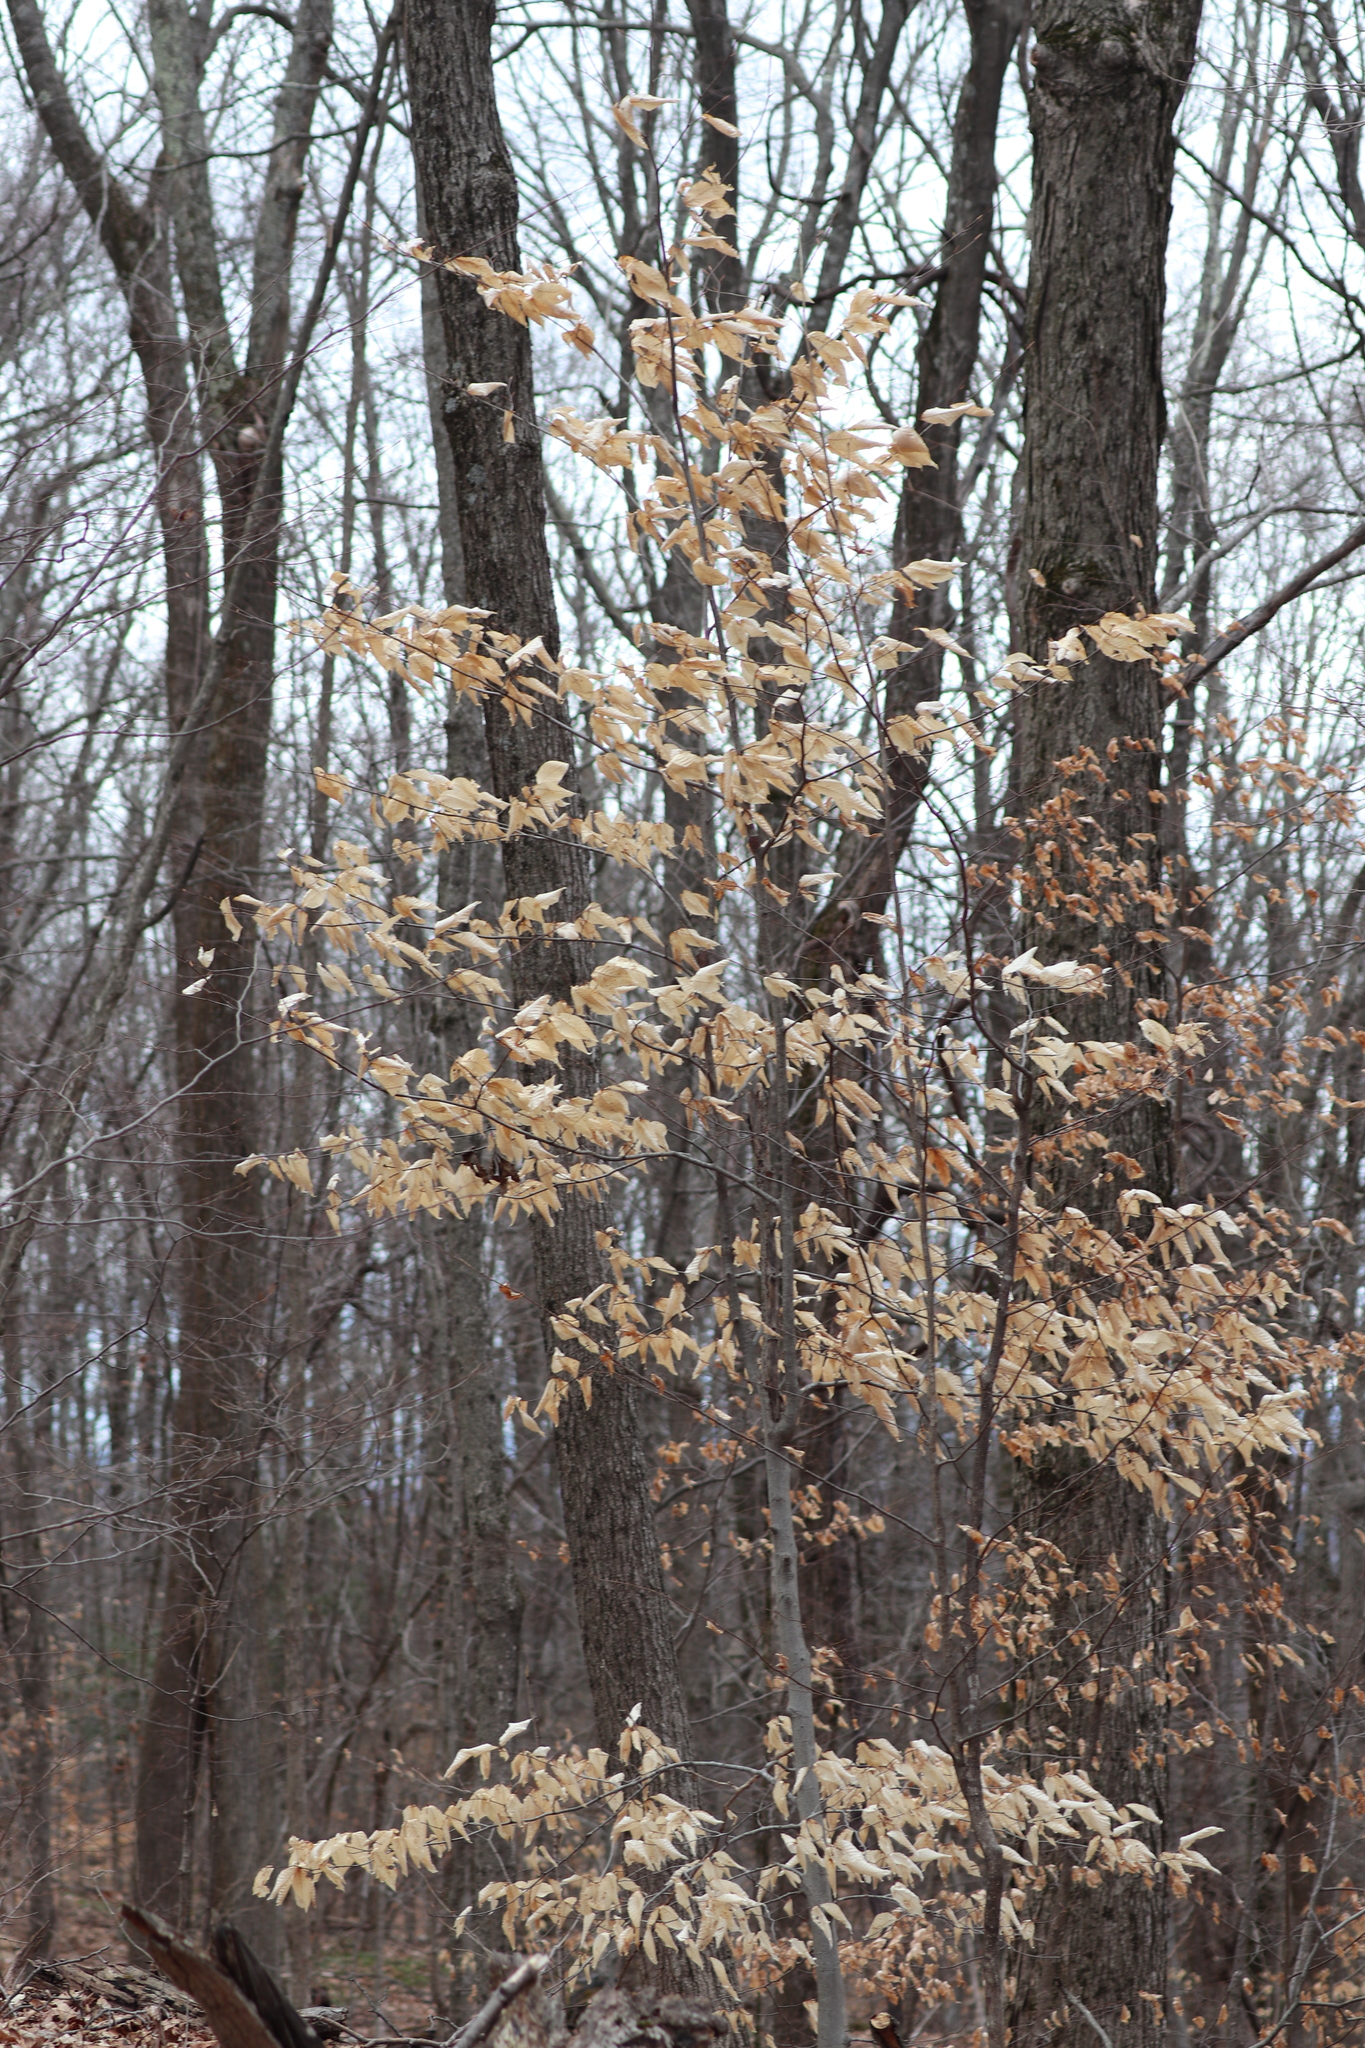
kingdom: Plantae
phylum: Tracheophyta
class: Magnoliopsida
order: Fagales
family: Fagaceae
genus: Fagus
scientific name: Fagus grandifolia
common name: American beech
